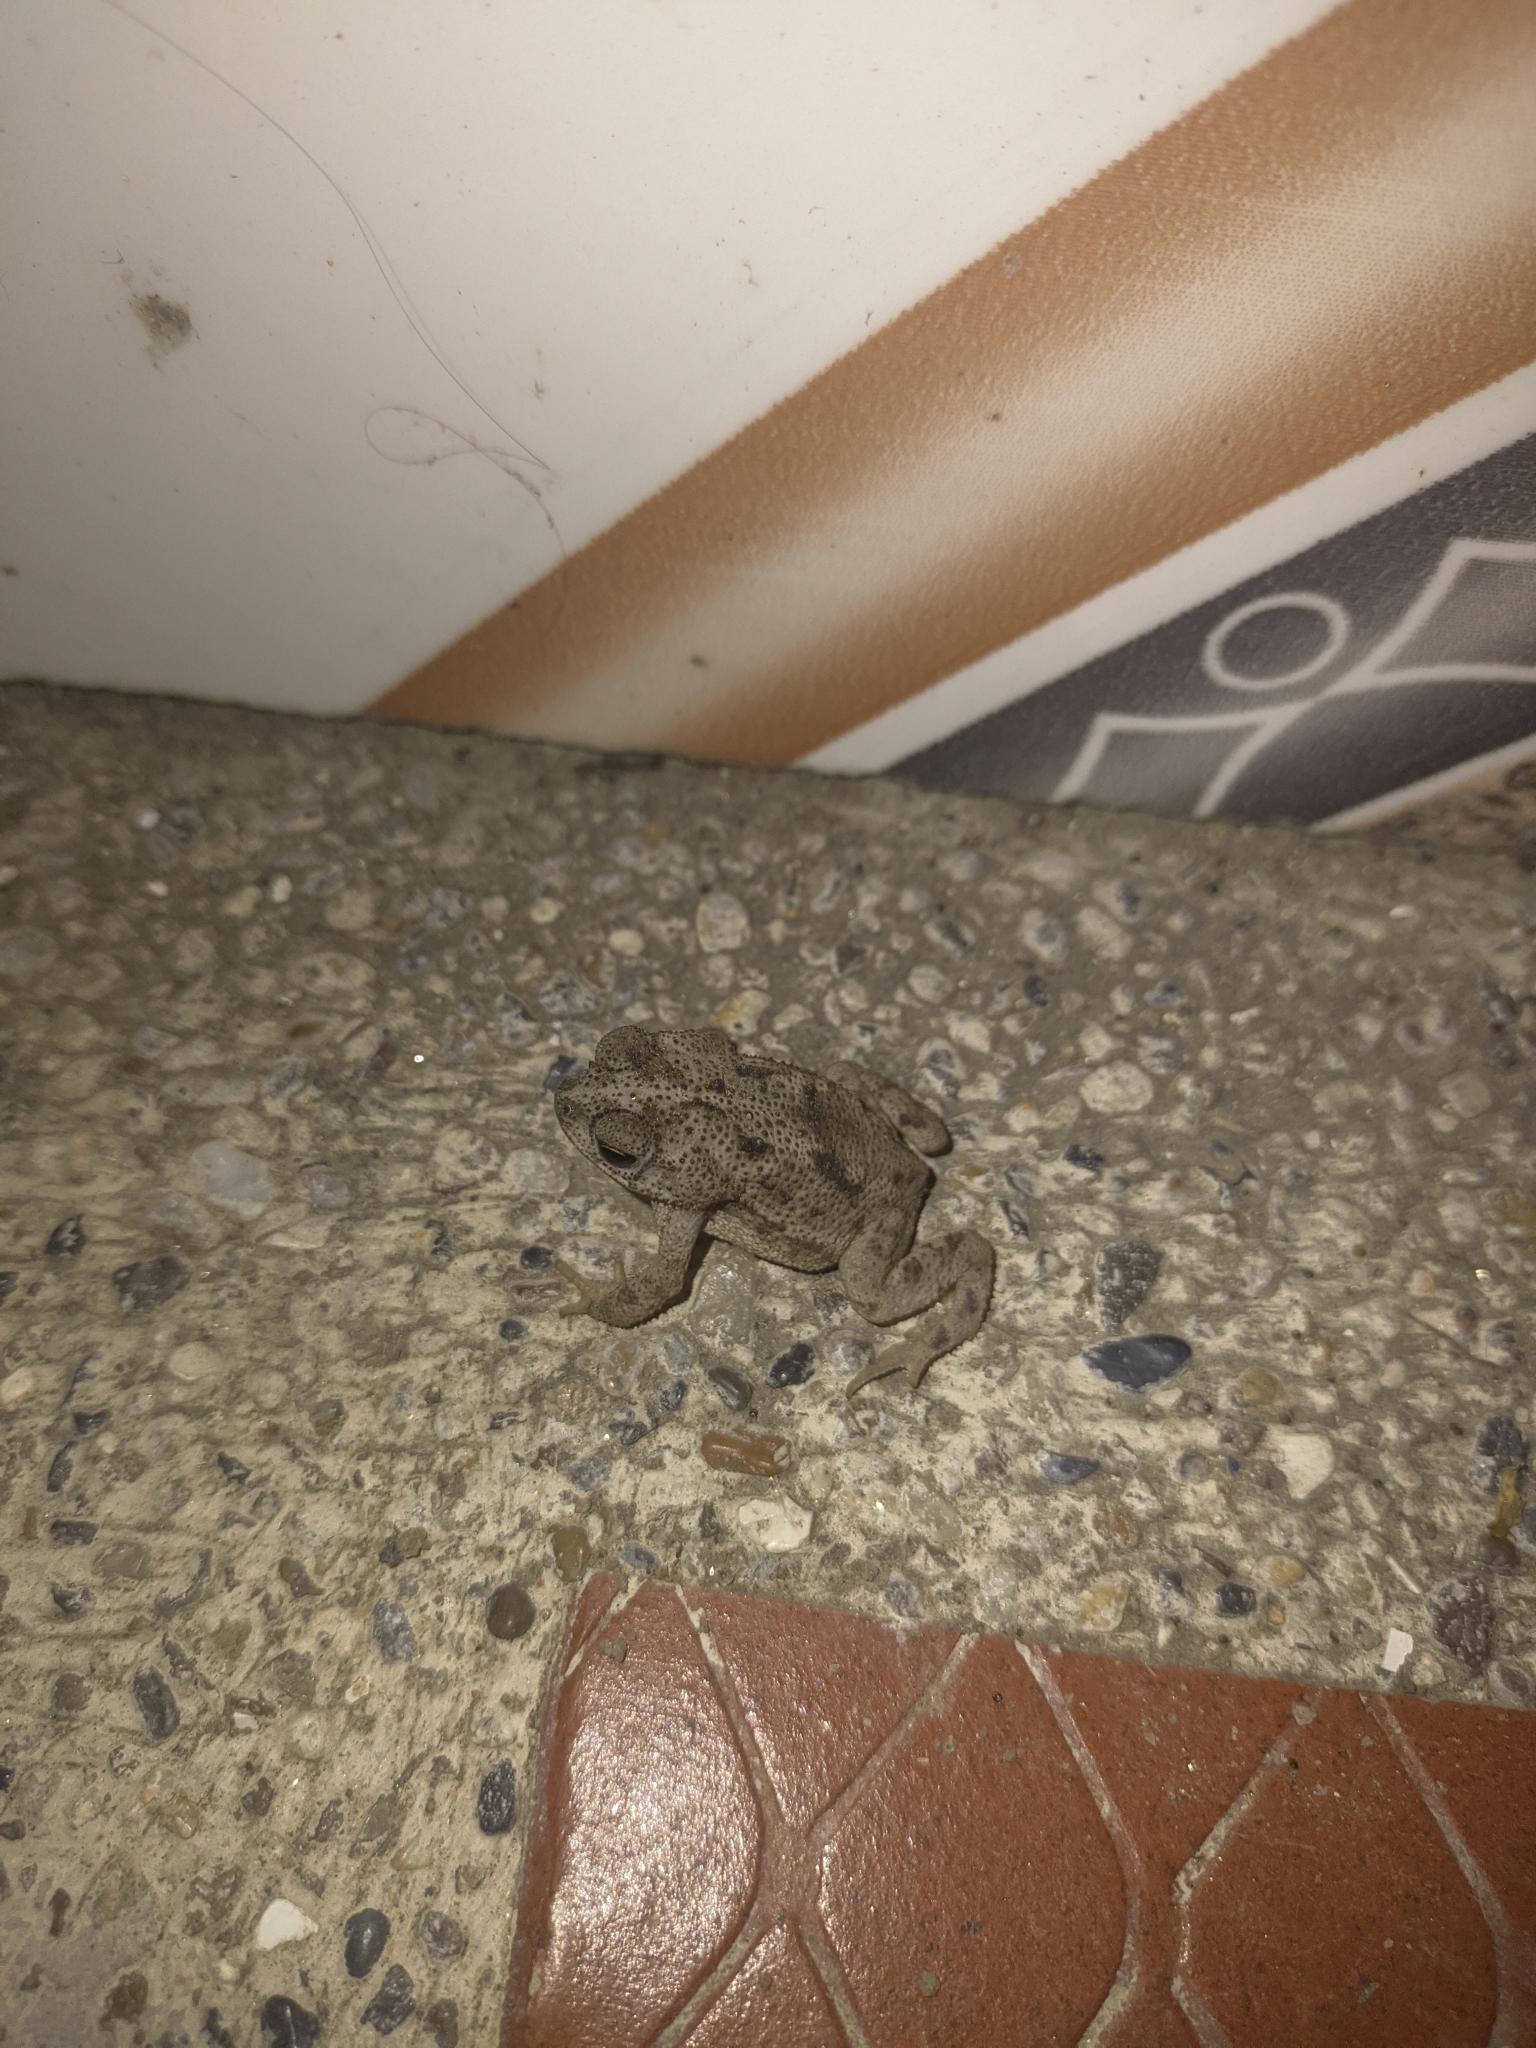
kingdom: Animalia
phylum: Chordata
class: Amphibia
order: Anura
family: Bufonidae
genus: Rhinella
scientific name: Rhinella humboldti
